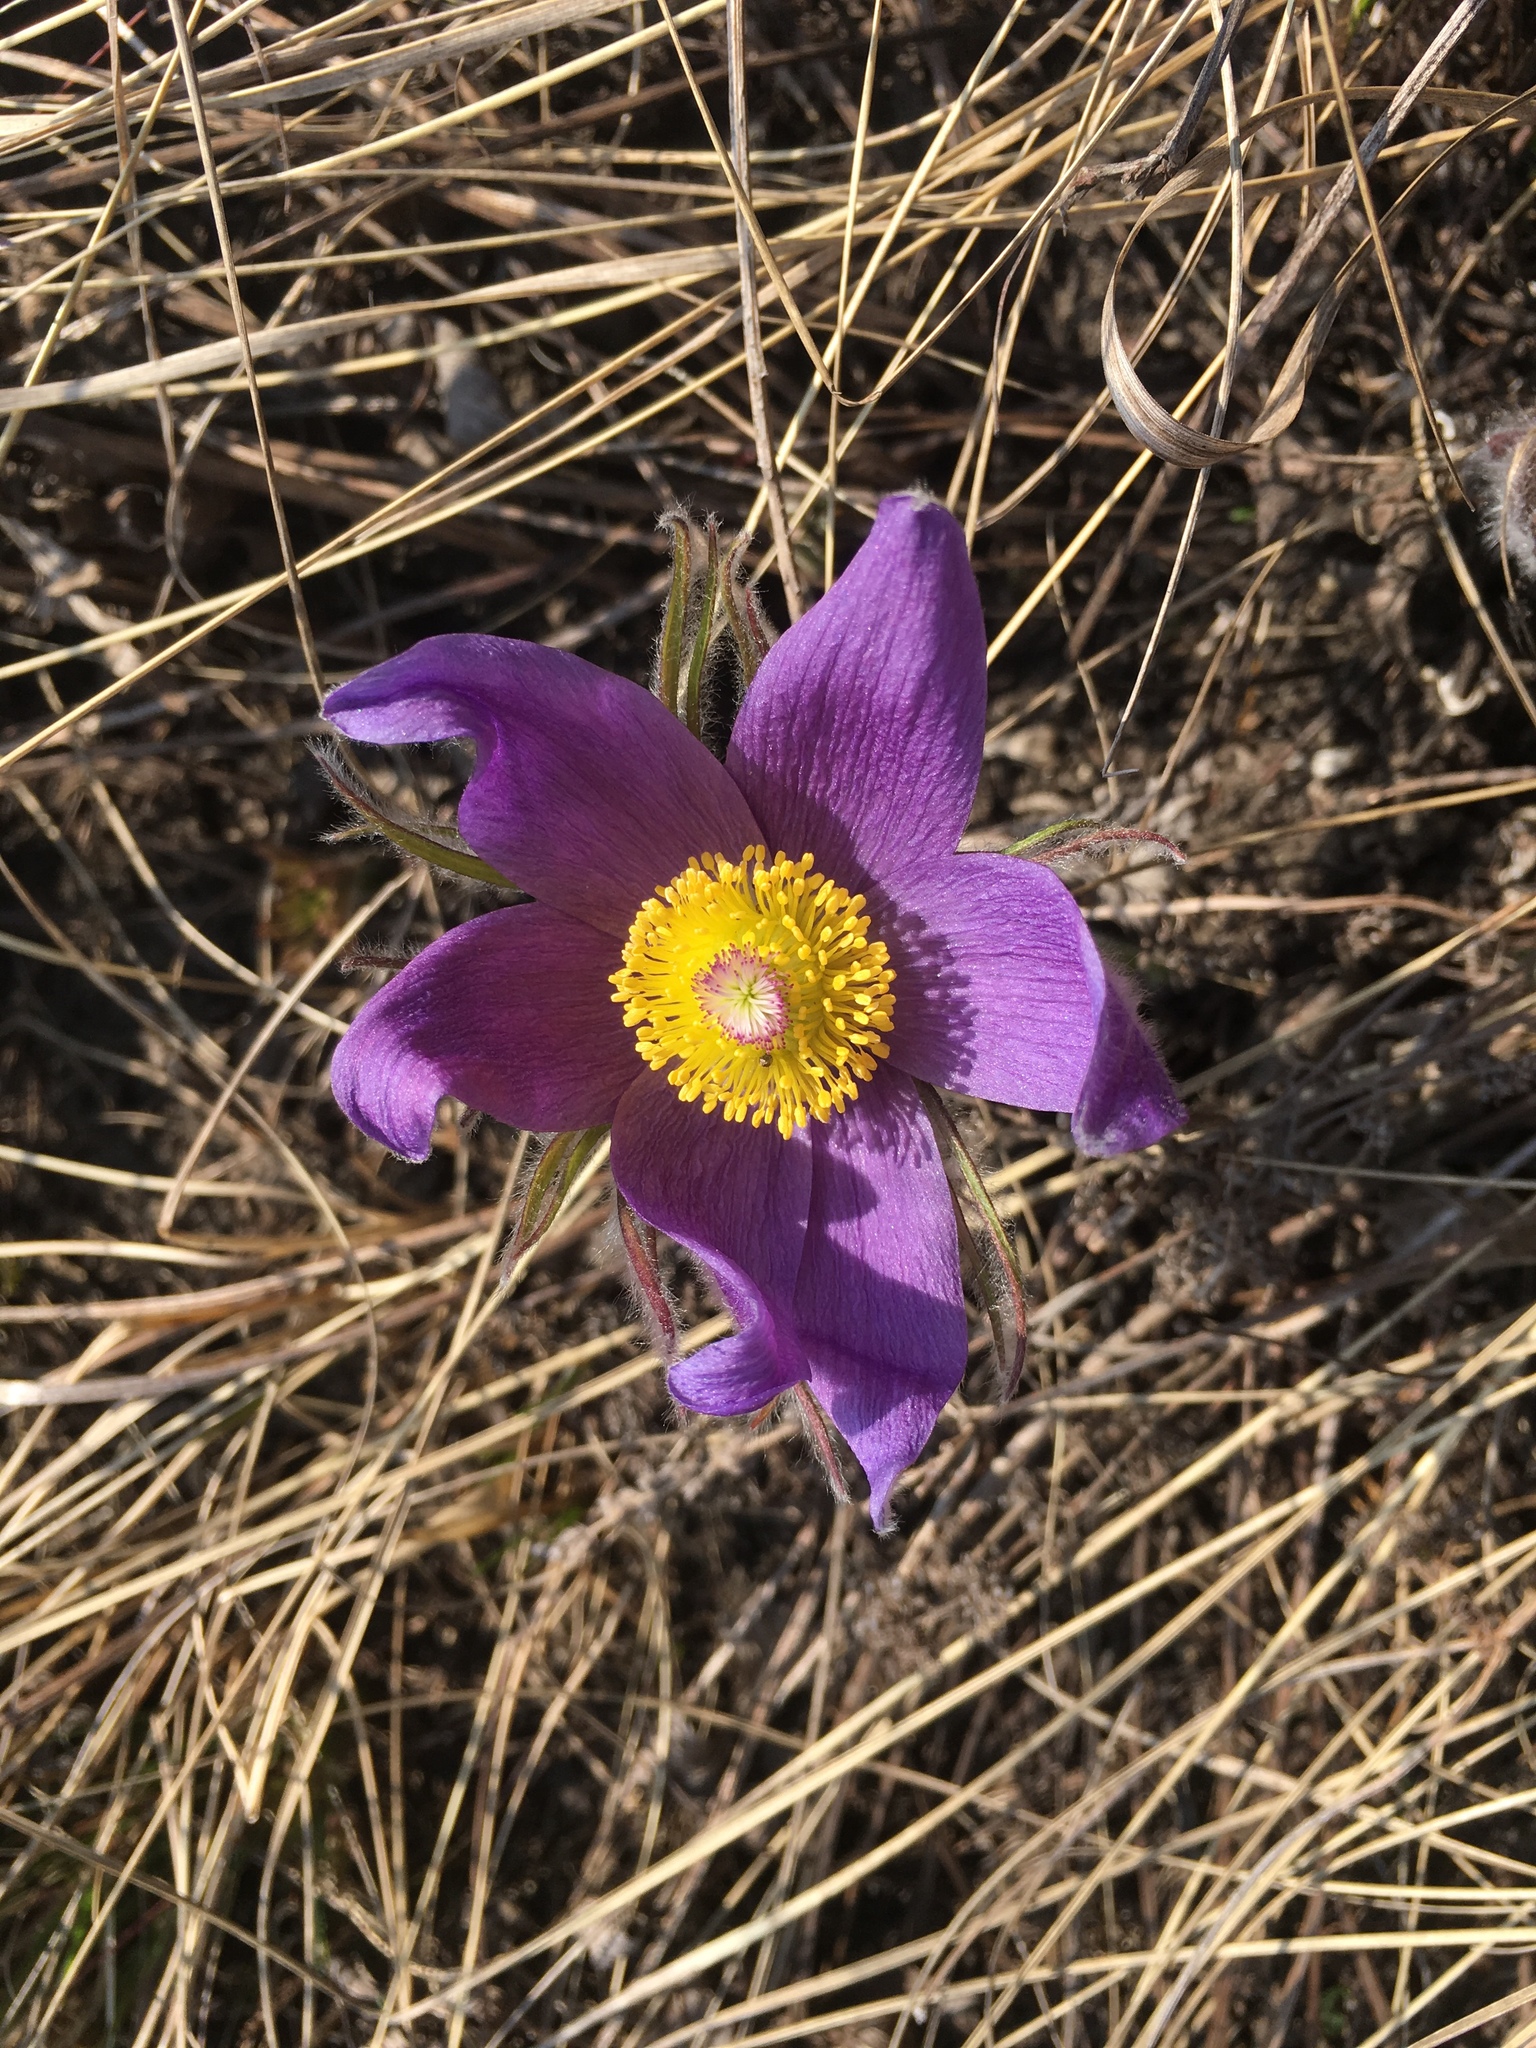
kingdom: Plantae
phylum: Tracheophyta
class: Magnoliopsida
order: Ranunculales
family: Ranunculaceae
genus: Pulsatilla
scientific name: Pulsatilla patens
